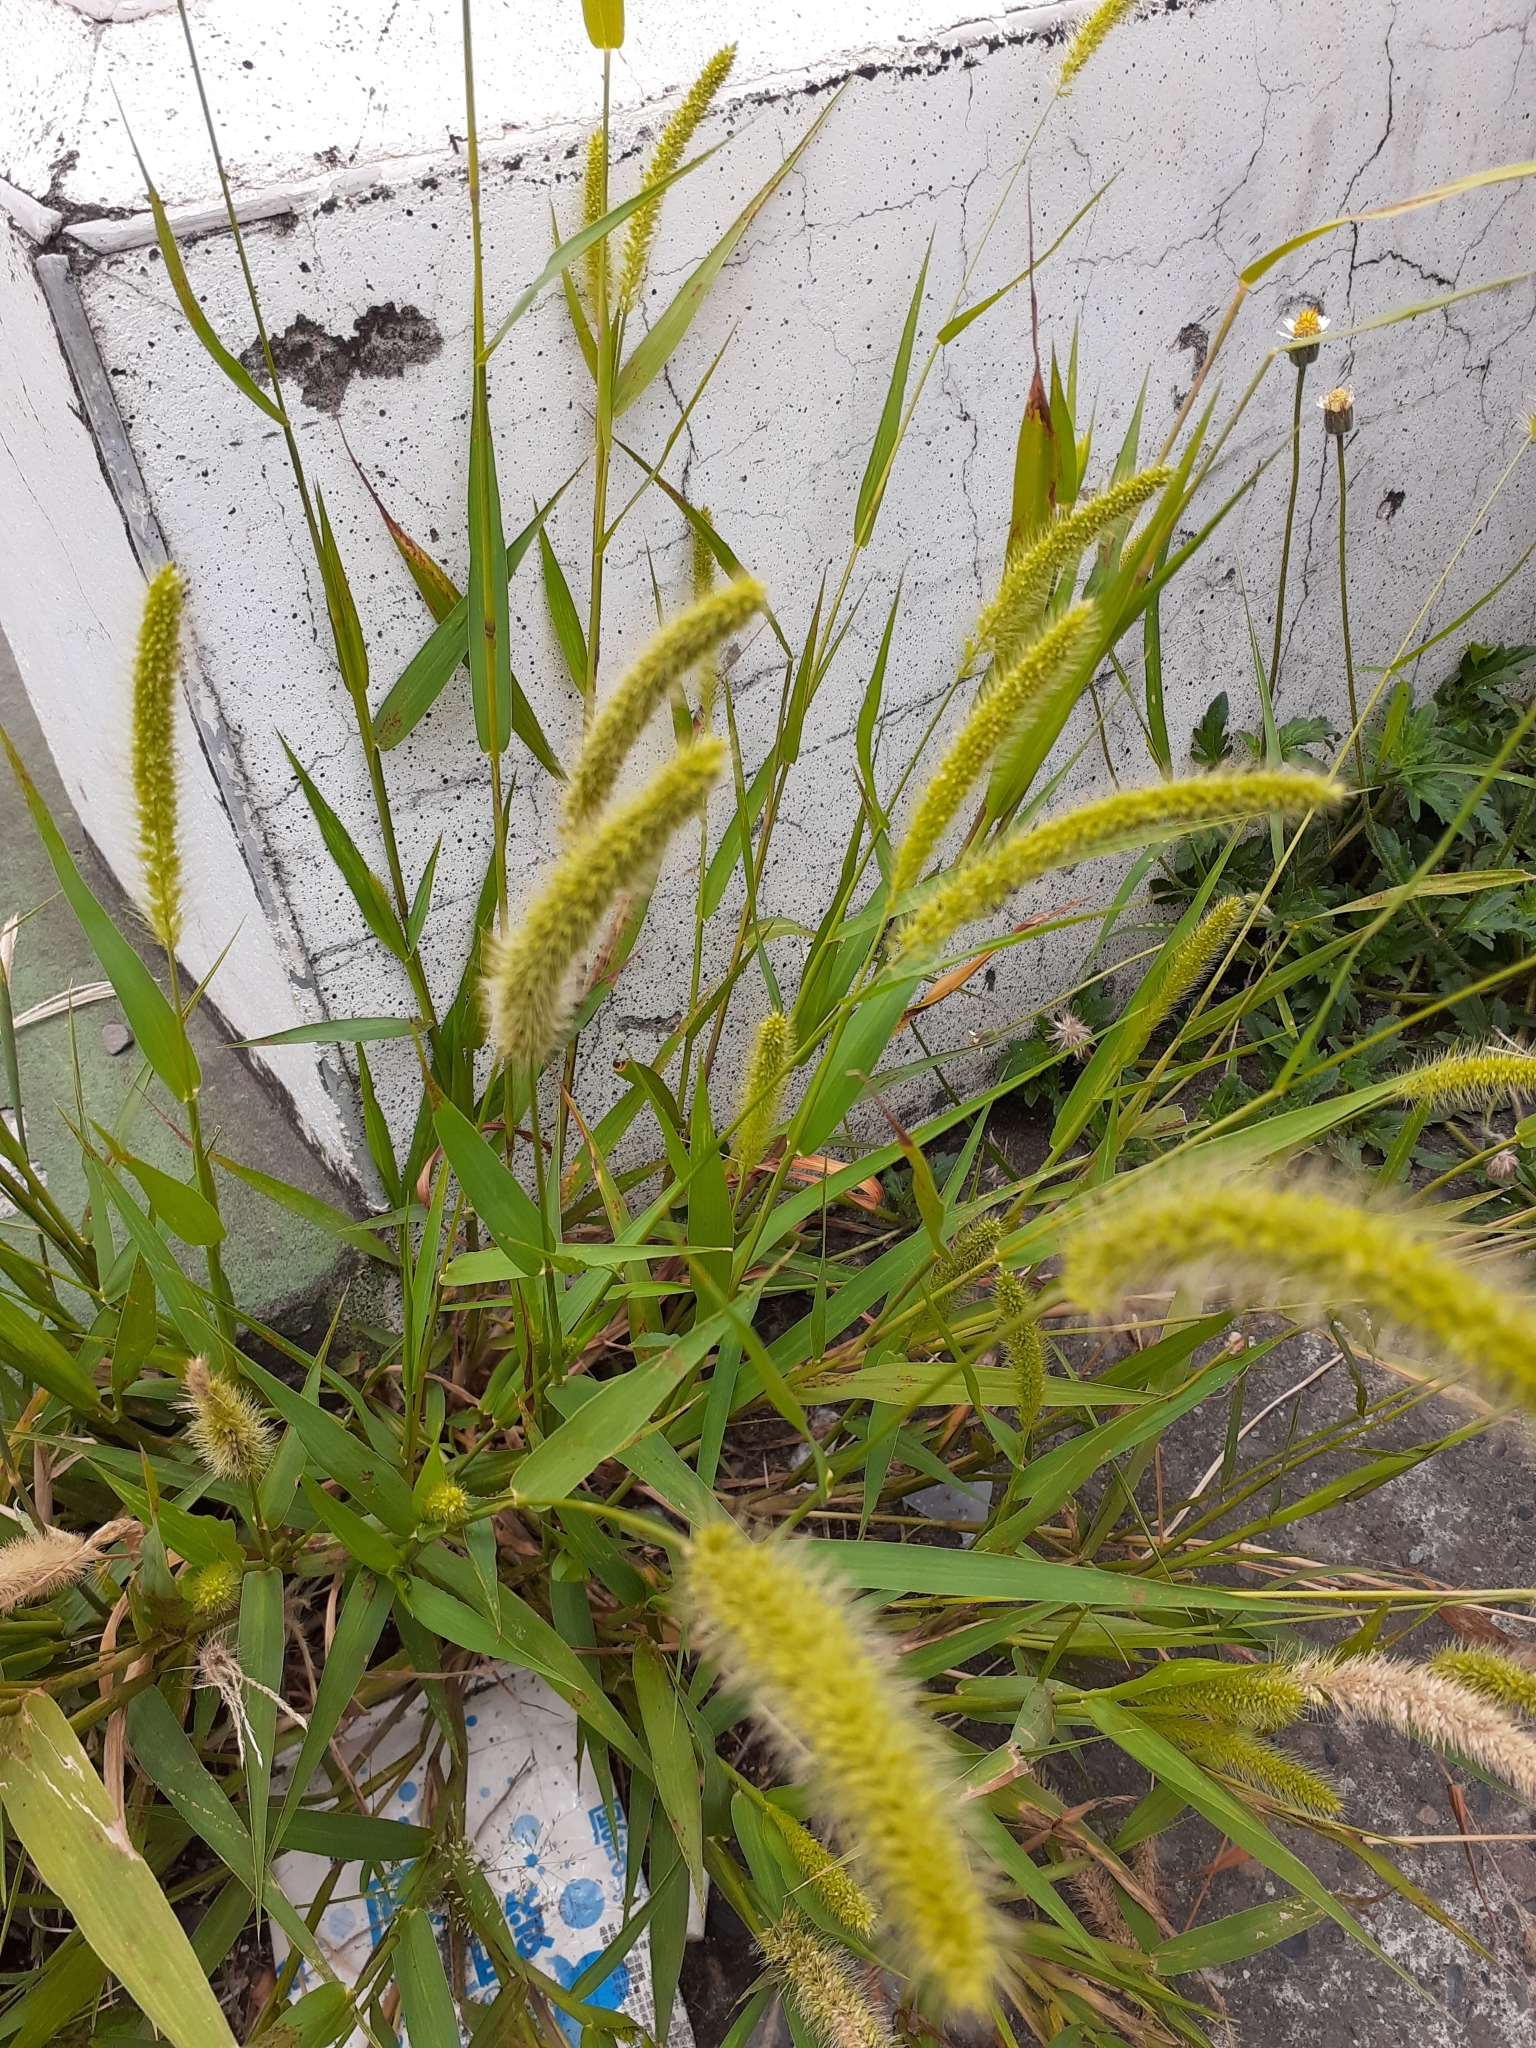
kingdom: Plantae
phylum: Tracheophyta
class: Liliopsida
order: Poales
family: Poaceae
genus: Setaria
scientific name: Setaria verticillata
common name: Hooked bristlegrass
